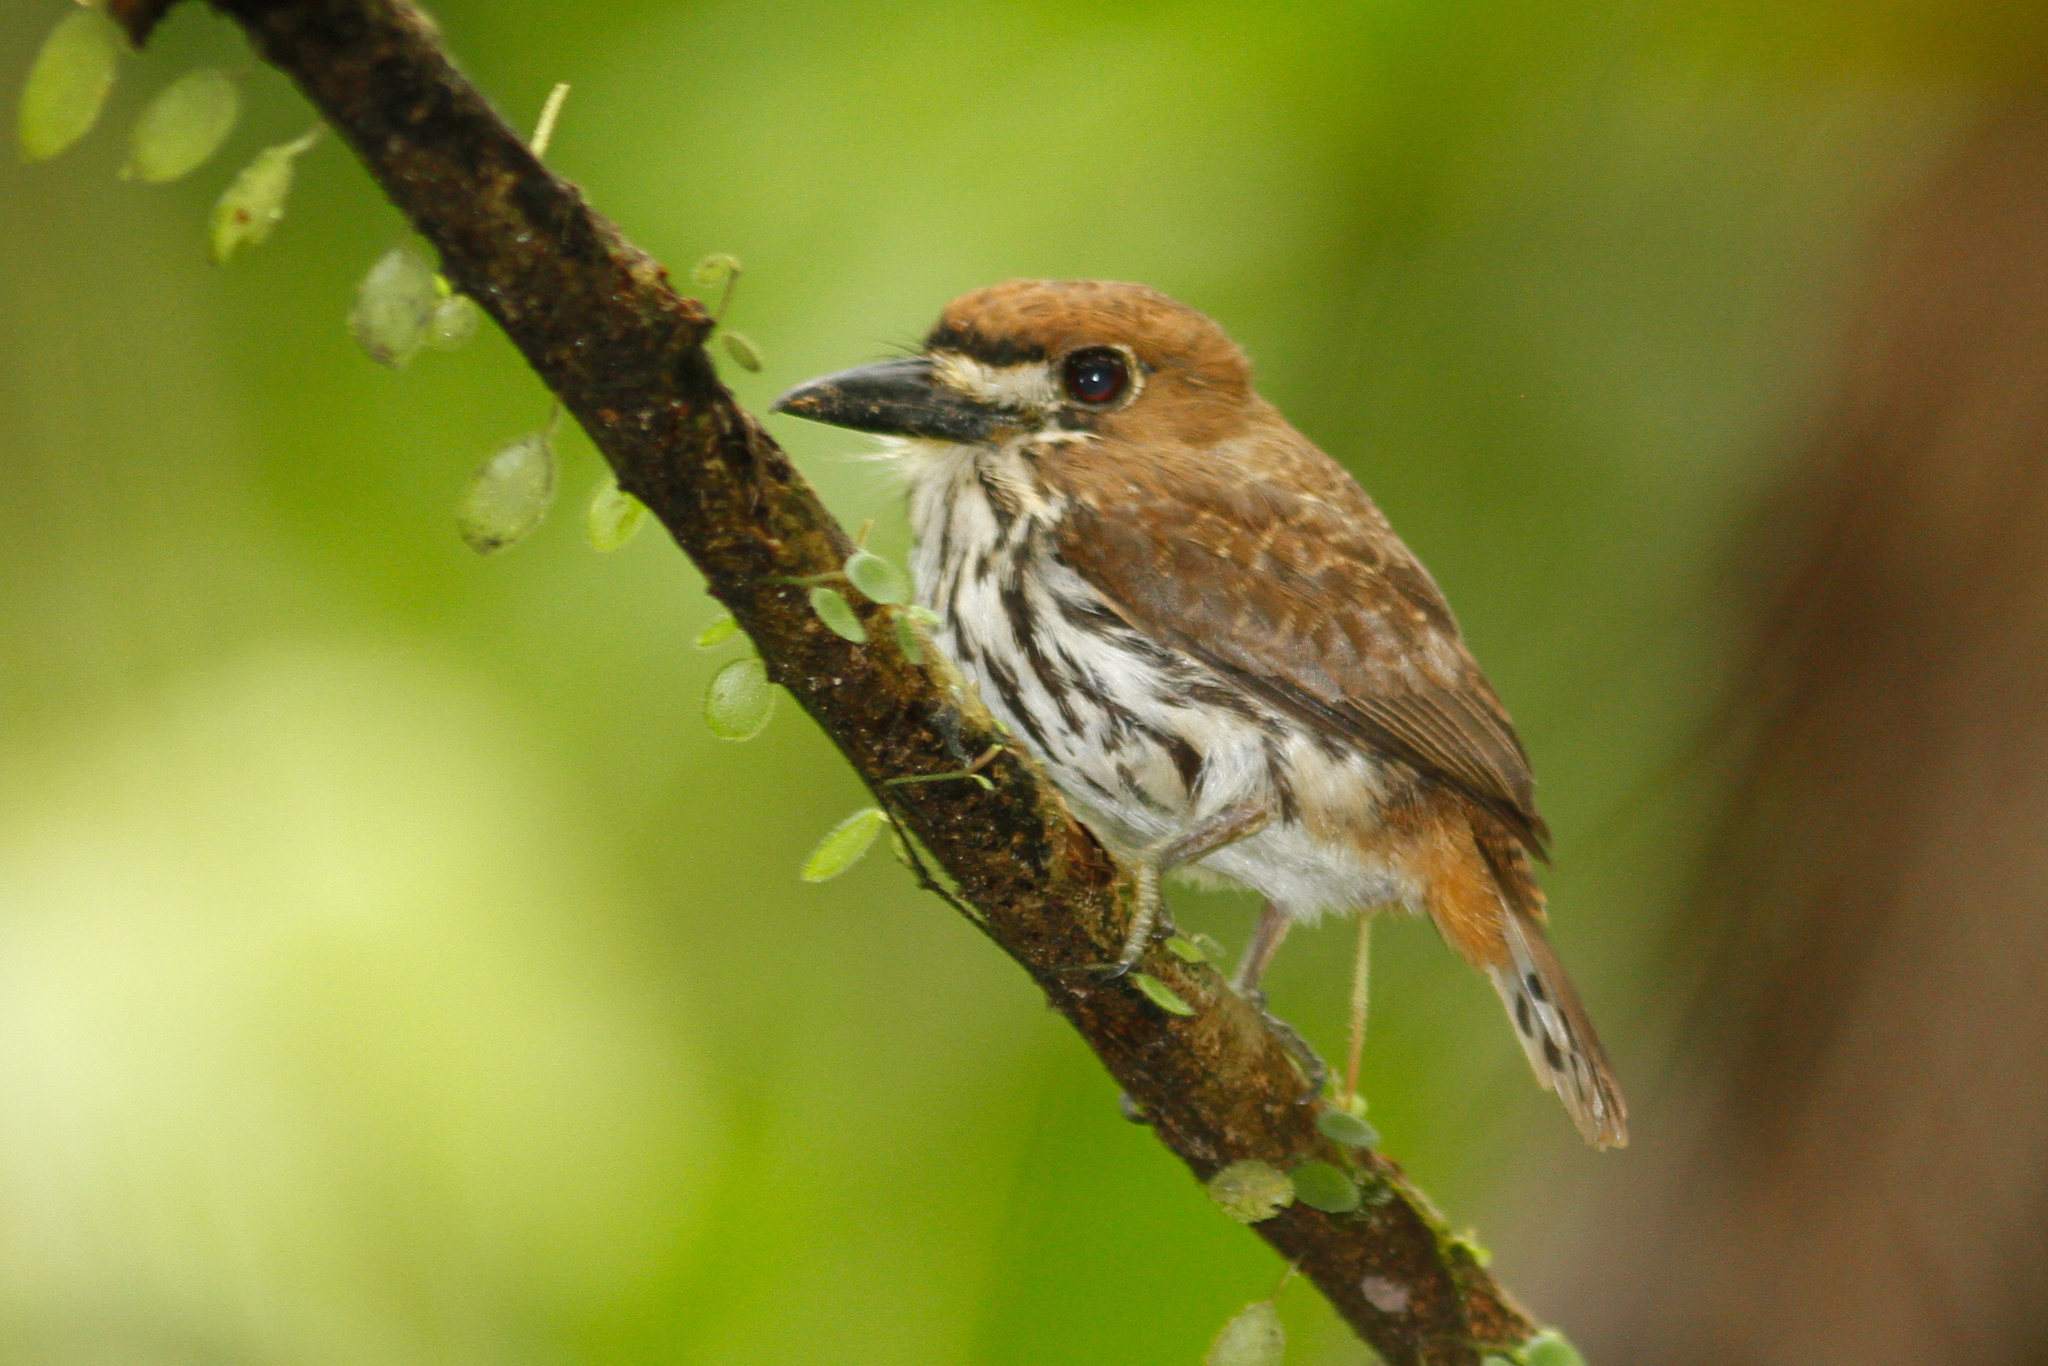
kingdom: Animalia
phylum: Chordata
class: Aves
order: Piciformes
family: Bucconidae
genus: Micromonacha
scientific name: Micromonacha lanceolata
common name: Lanceolated monklet
